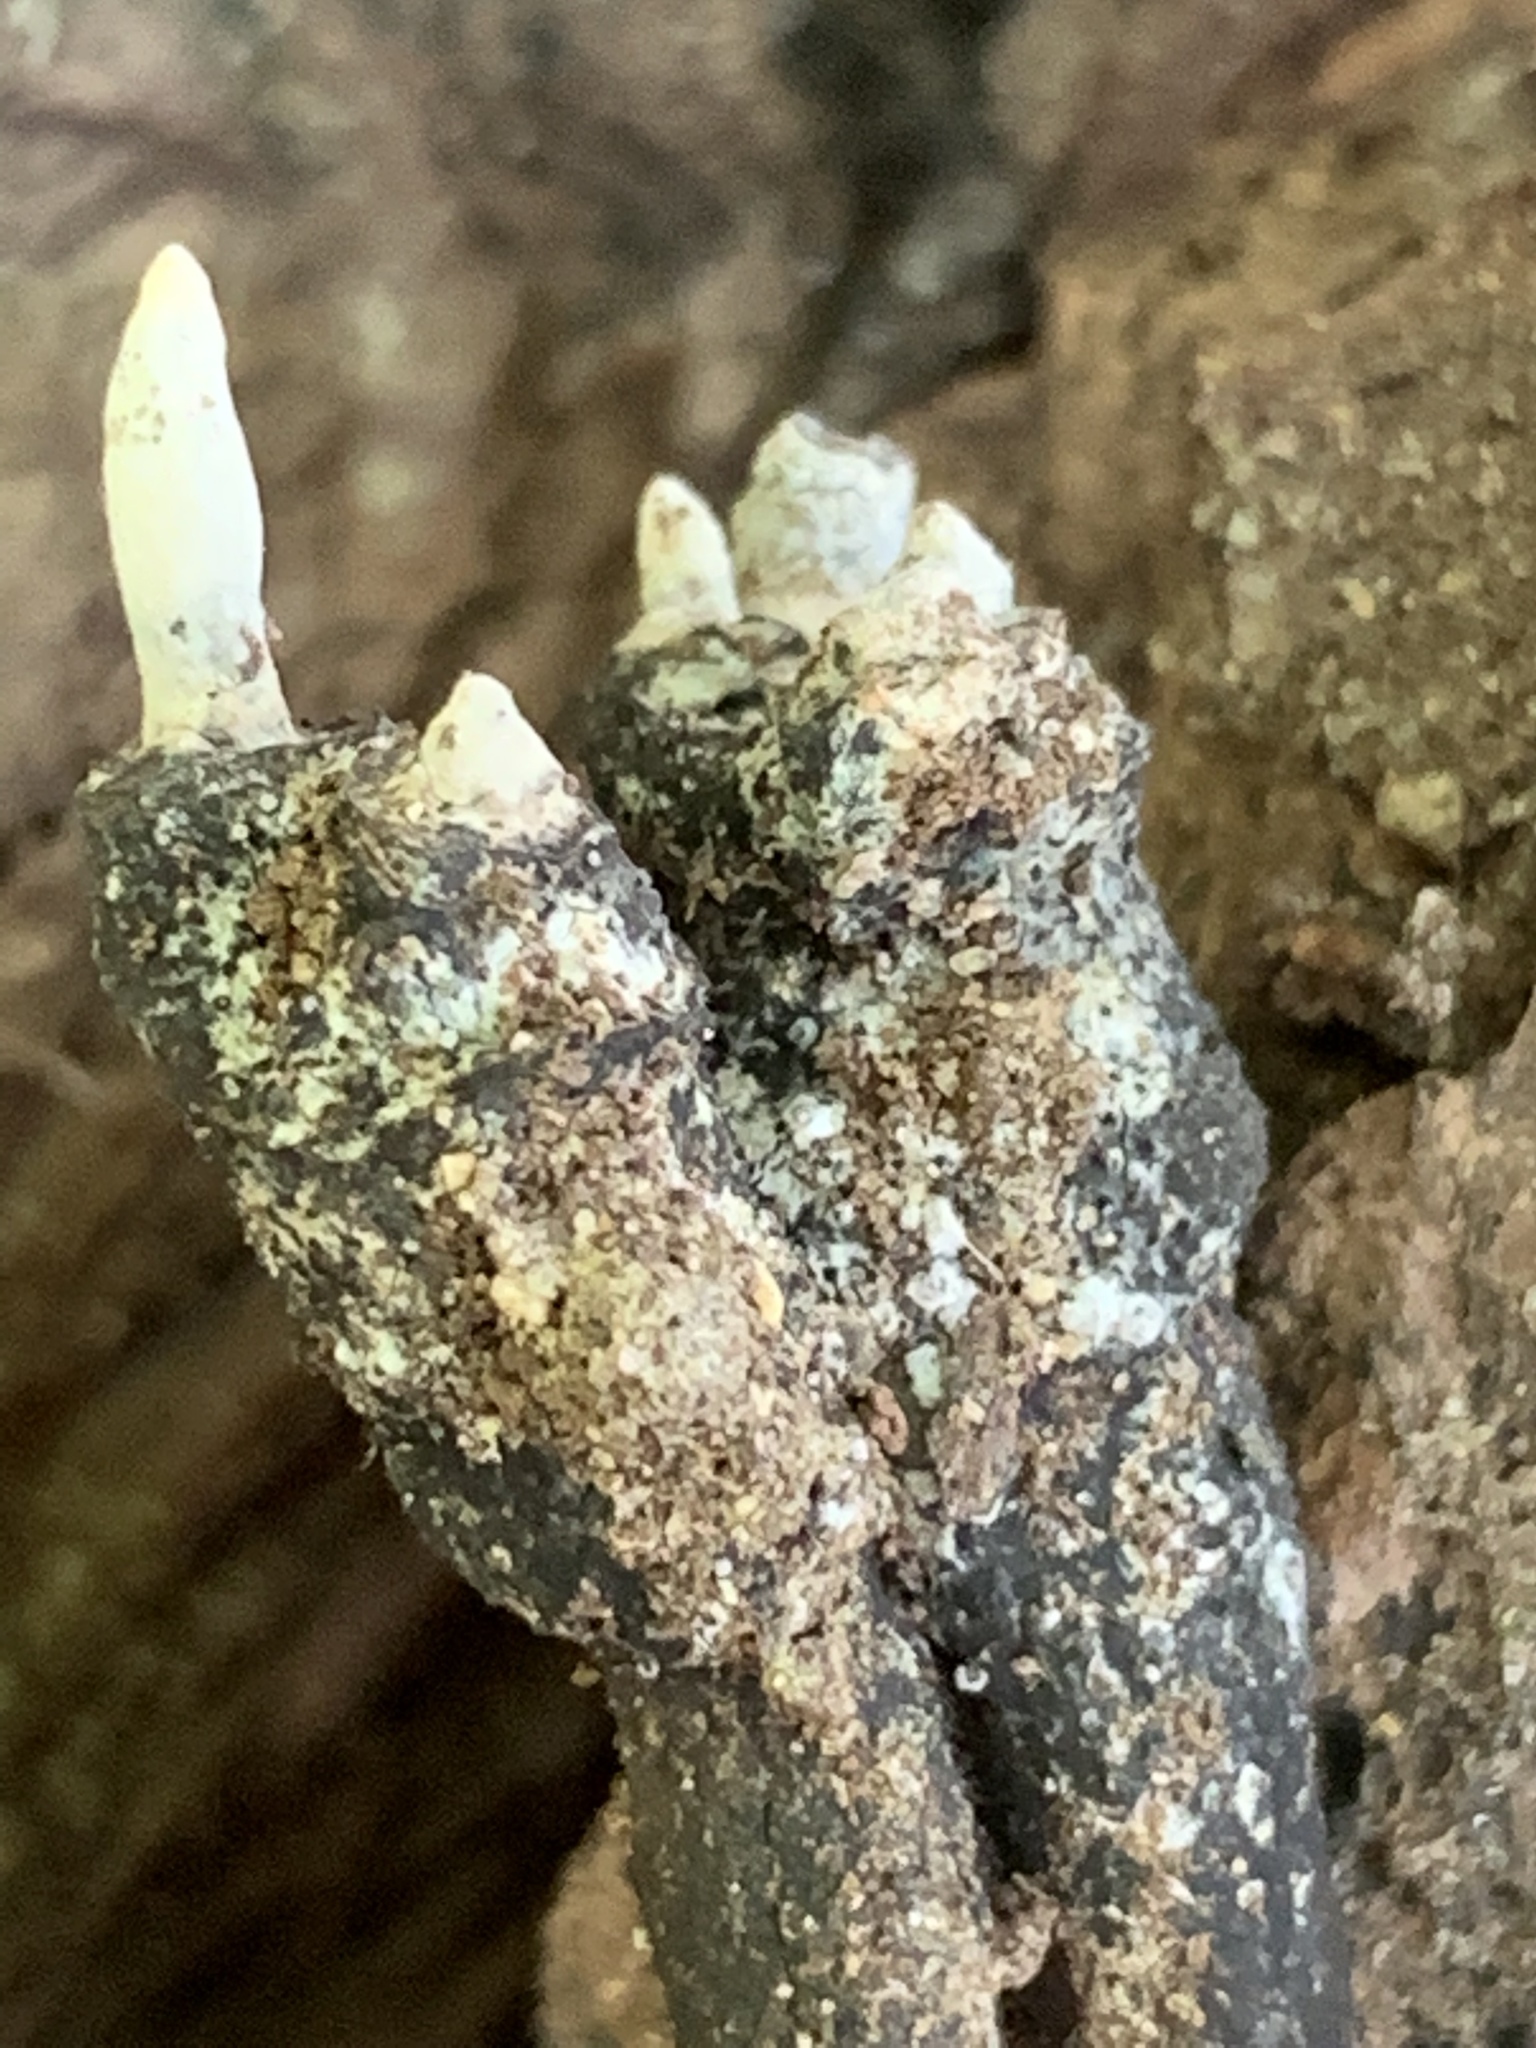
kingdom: Fungi
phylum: Ascomycota
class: Sordariomycetes
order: Xylariales
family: Xylariaceae
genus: Xylaria
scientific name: Xylaria polymorpha
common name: Dead man's fingers
